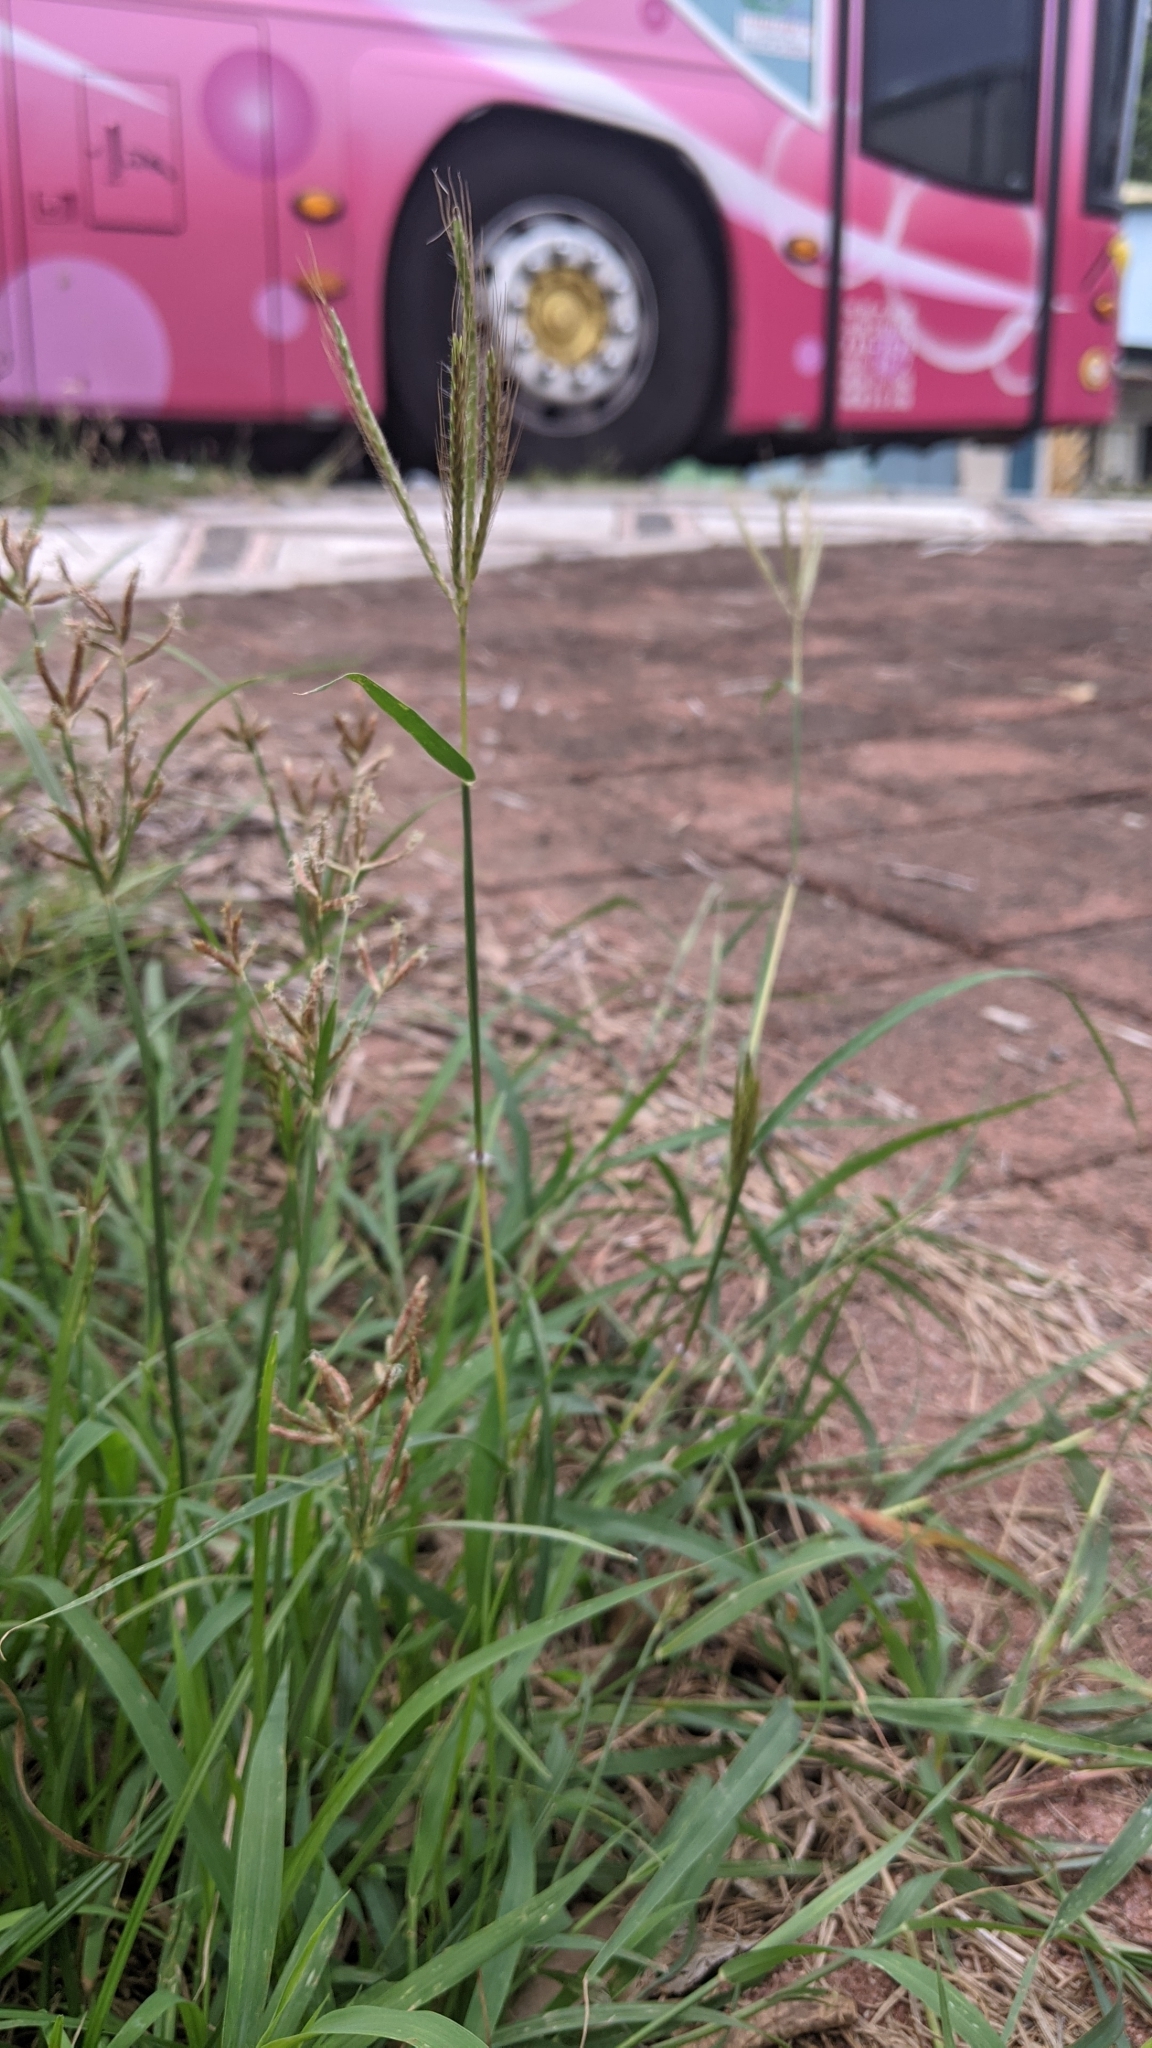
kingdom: Plantae
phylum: Tracheophyta
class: Liliopsida
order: Poales
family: Poaceae
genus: Dichanthium
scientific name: Dichanthium annulatum
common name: Kleberg's bluestem
